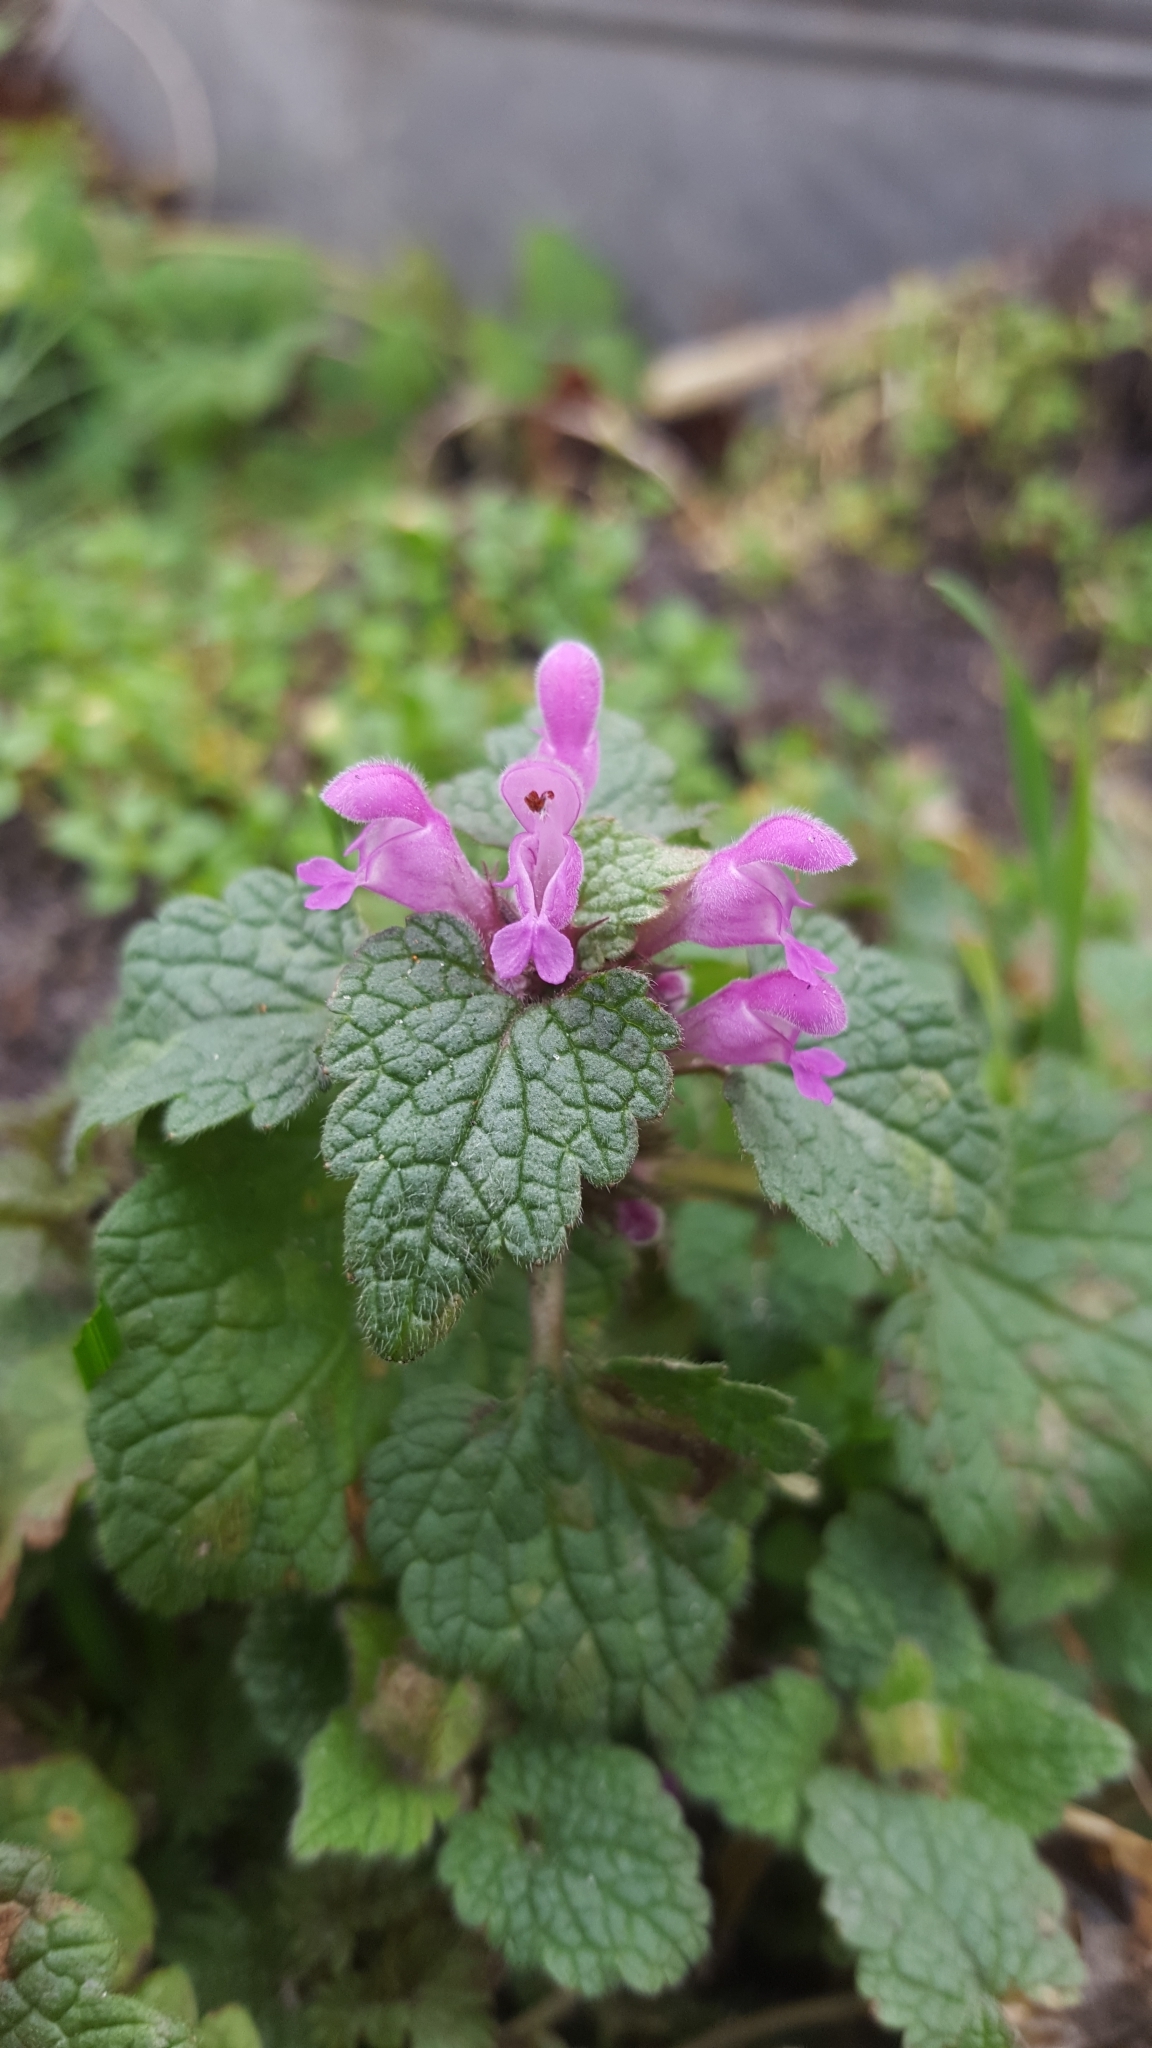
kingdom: Plantae
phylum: Tracheophyta
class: Magnoliopsida
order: Lamiales
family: Lamiaceae
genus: Lamium
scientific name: Lamium purpureum
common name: Red dead-nettle
